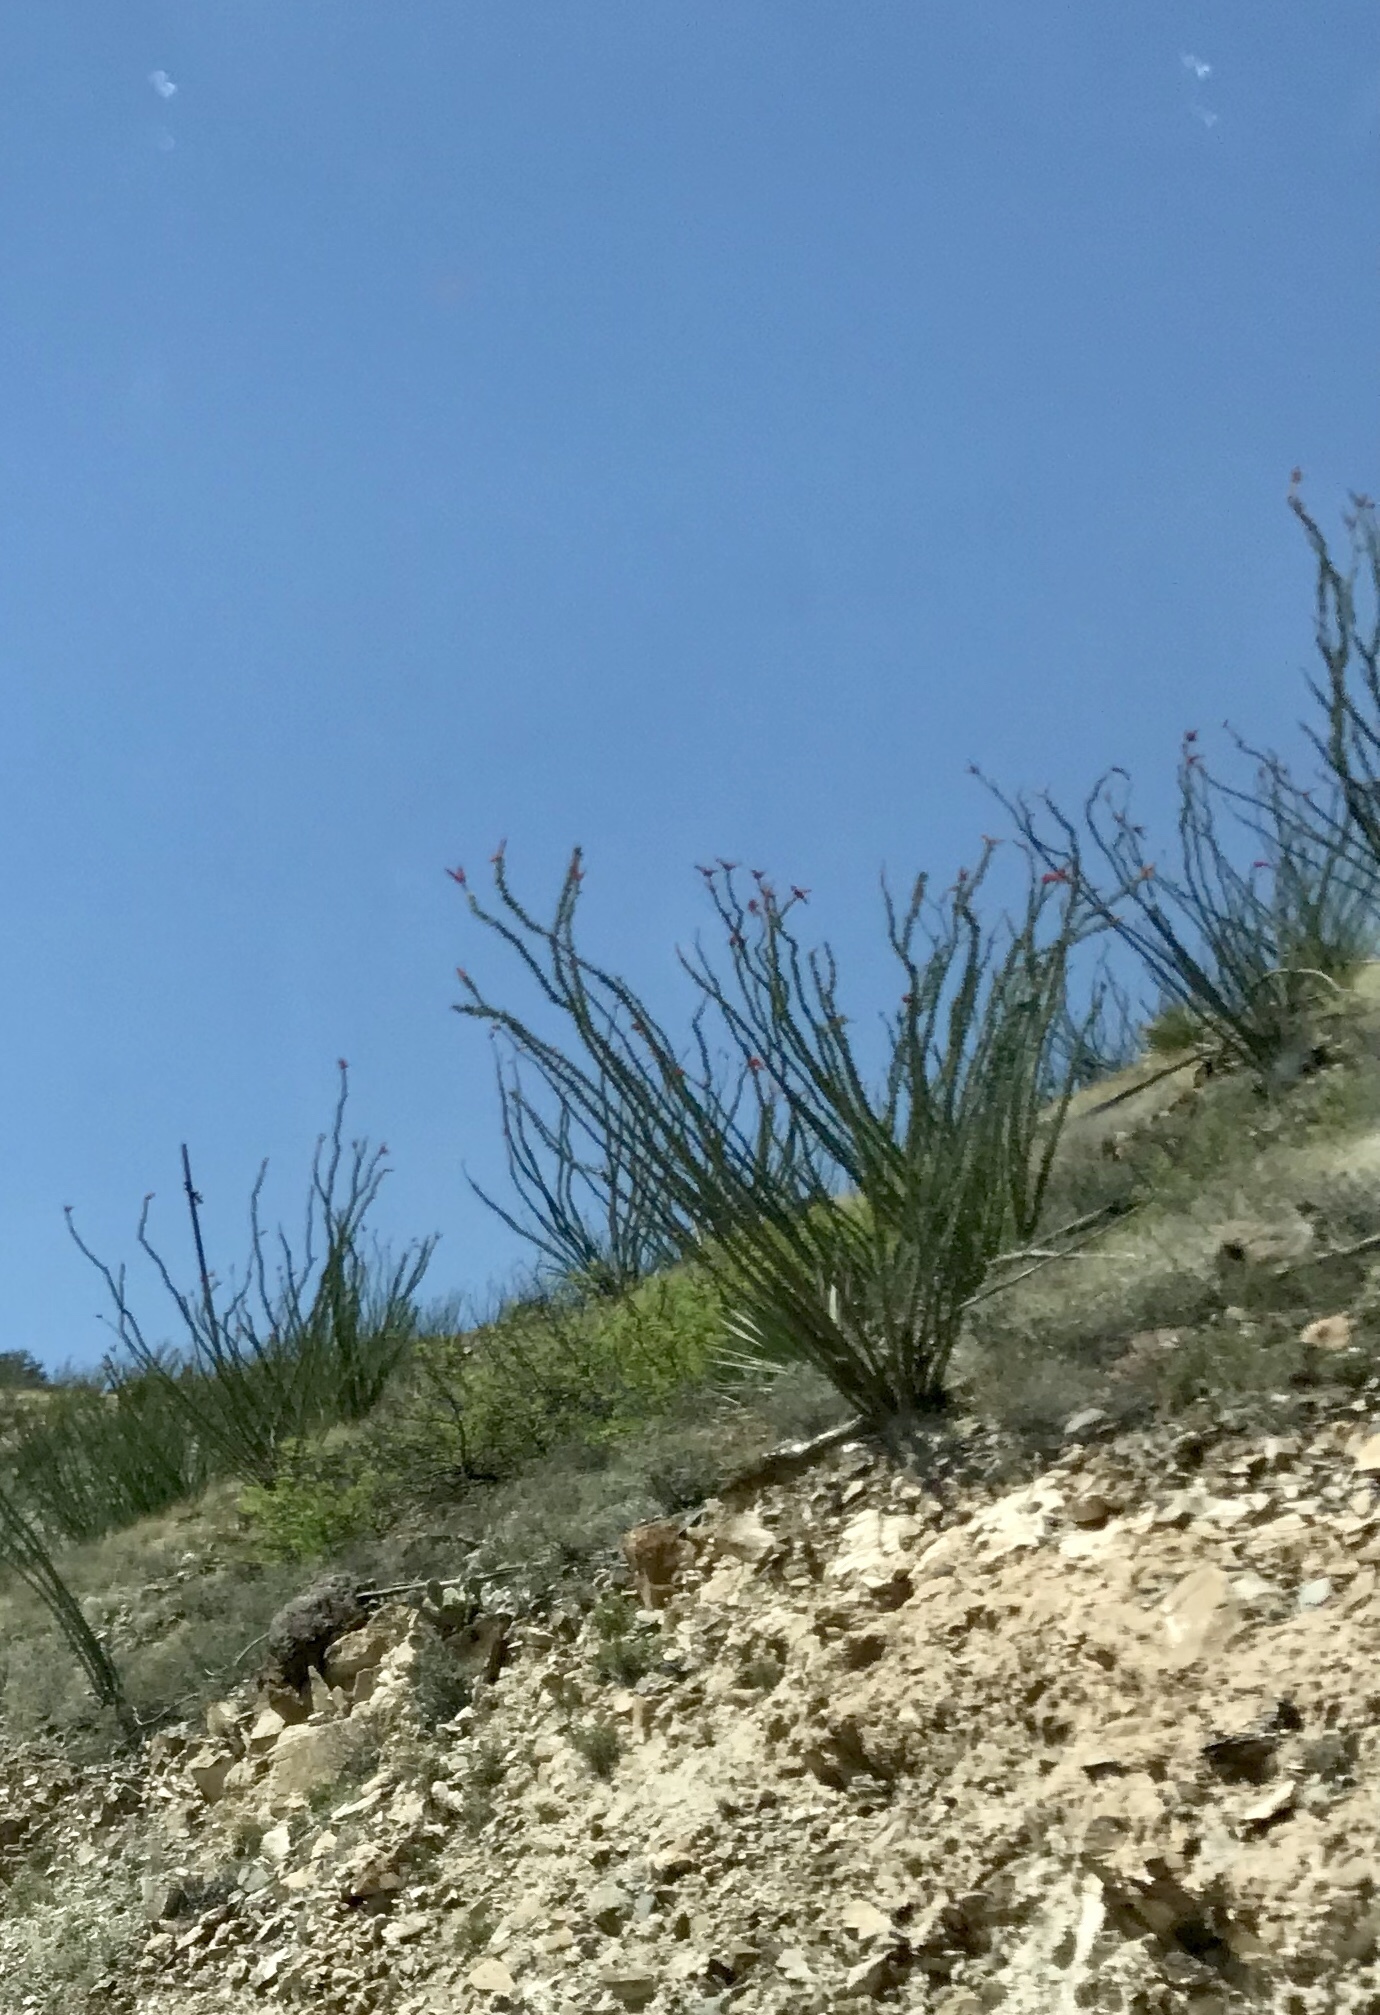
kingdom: Plantae
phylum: Tracheophyta
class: Magnoliopsida
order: Ericales
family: Fouquieriaceae
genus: Fouquieria
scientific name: Fouquieria splendens
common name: Vine-cactus
